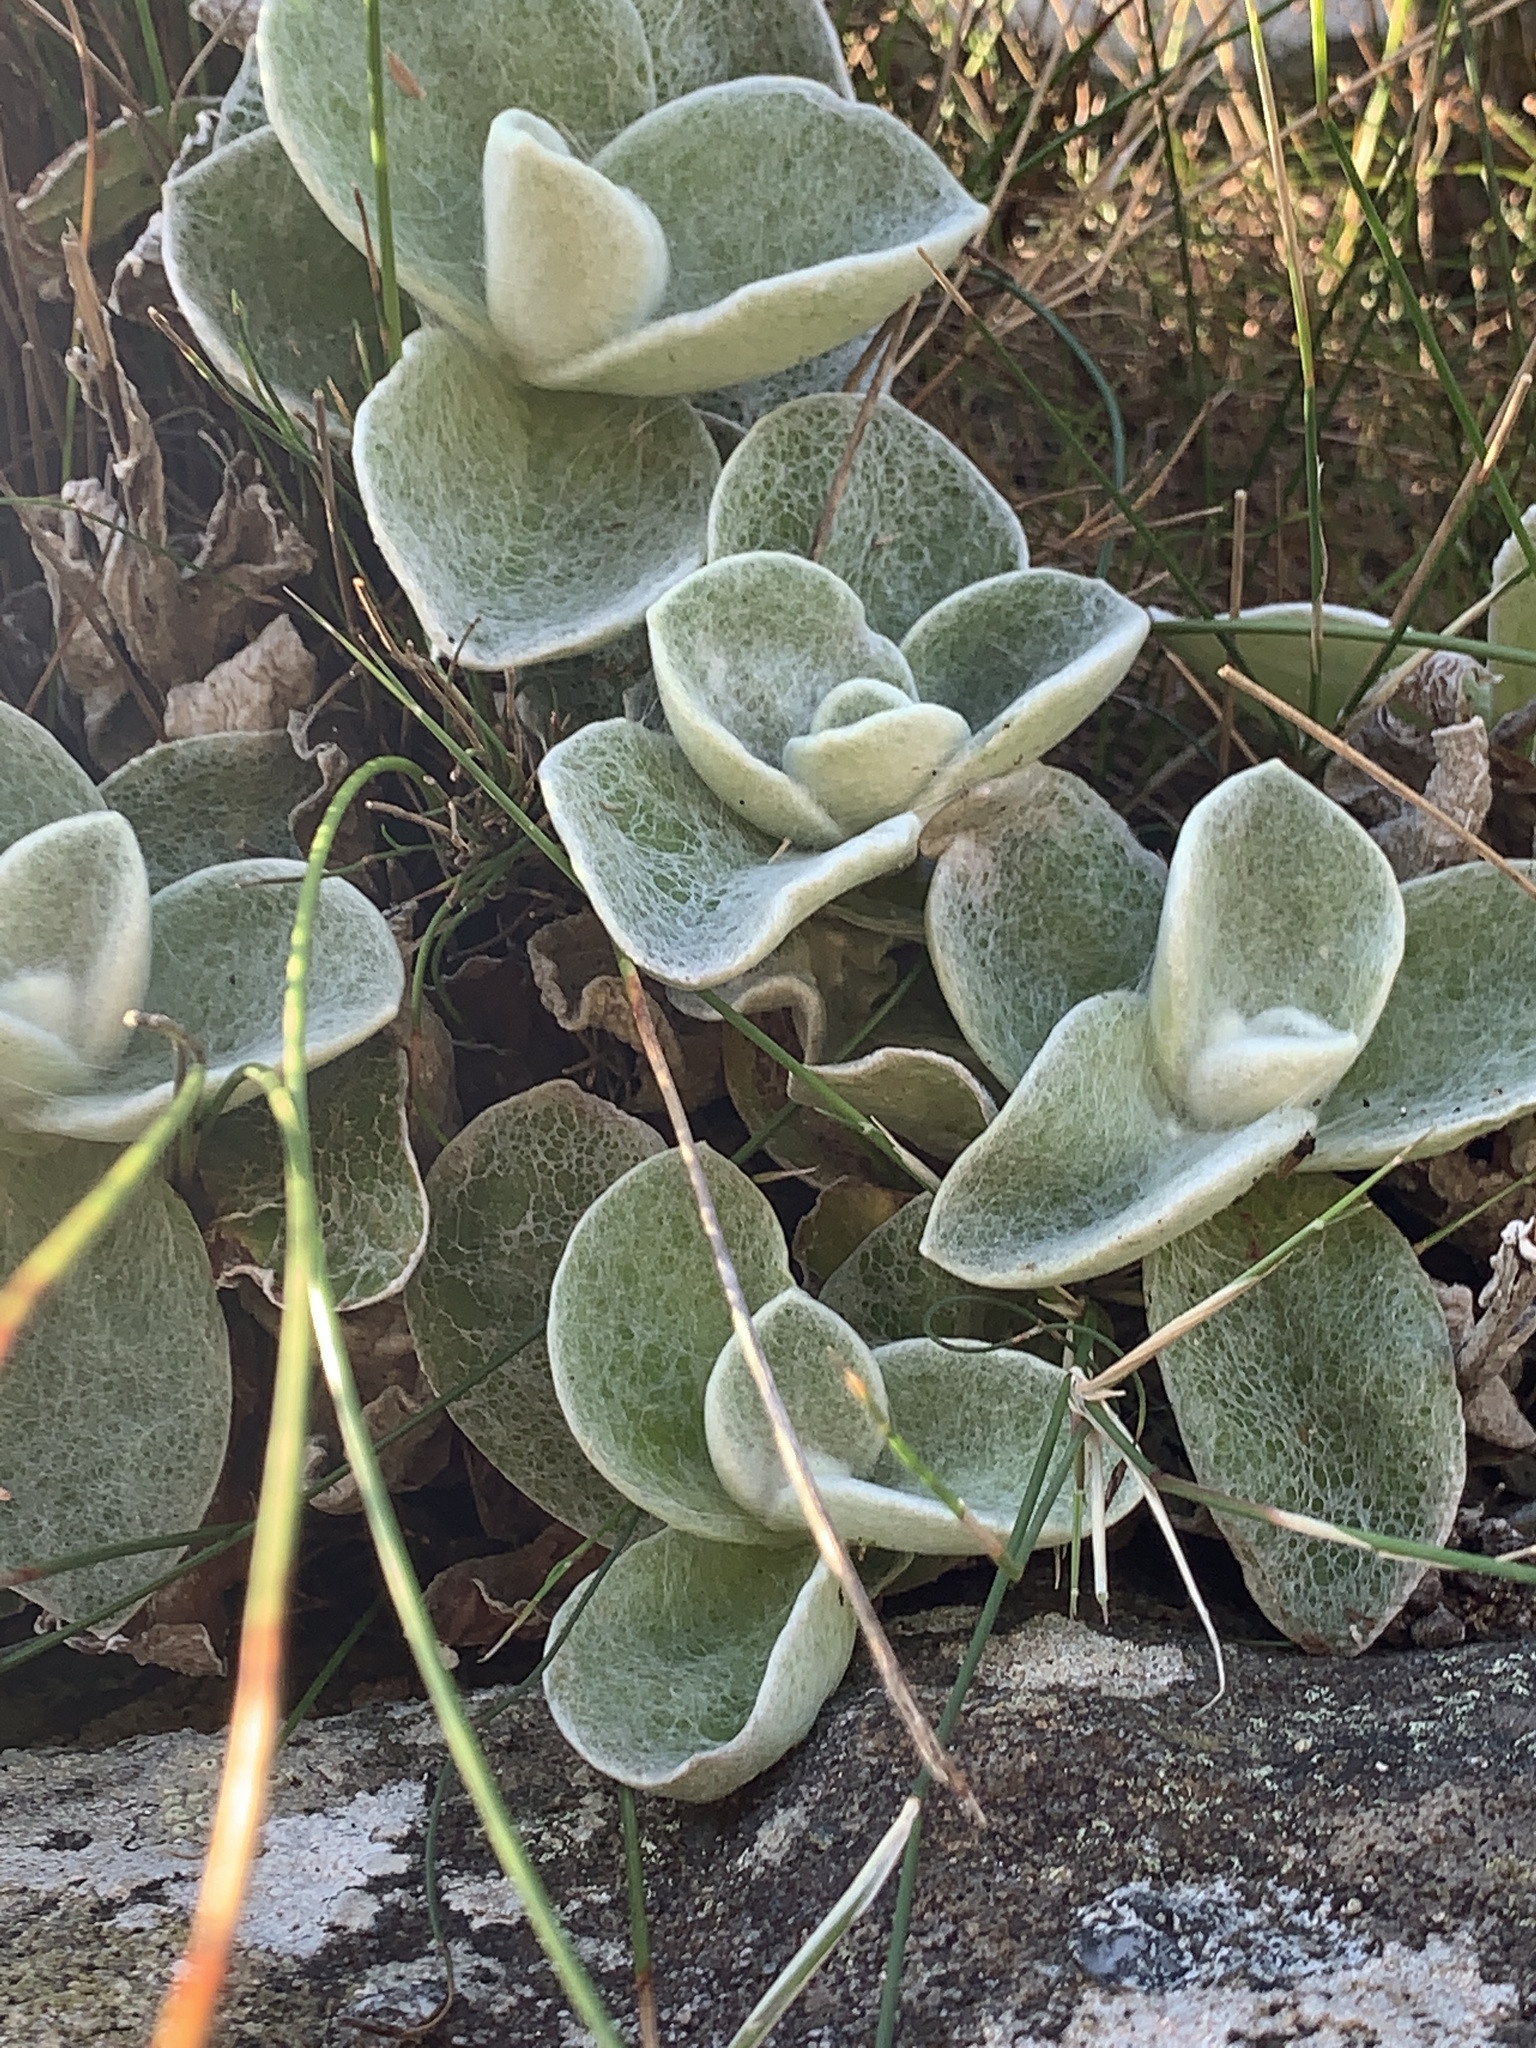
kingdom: Plantae
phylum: Tracheophyta
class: Magnoliopsida
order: Asterales
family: Asteraceae
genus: Helichrysum
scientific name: Helichrysum grandiflorum
